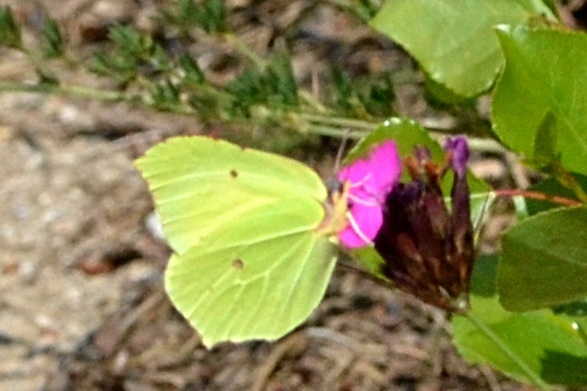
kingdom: Animalia
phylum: Arthropoda
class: Insecta
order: Lepidoptera
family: Pieridae
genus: Gonepteryx
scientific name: Gonepteryx rhamni
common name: Brimstone
